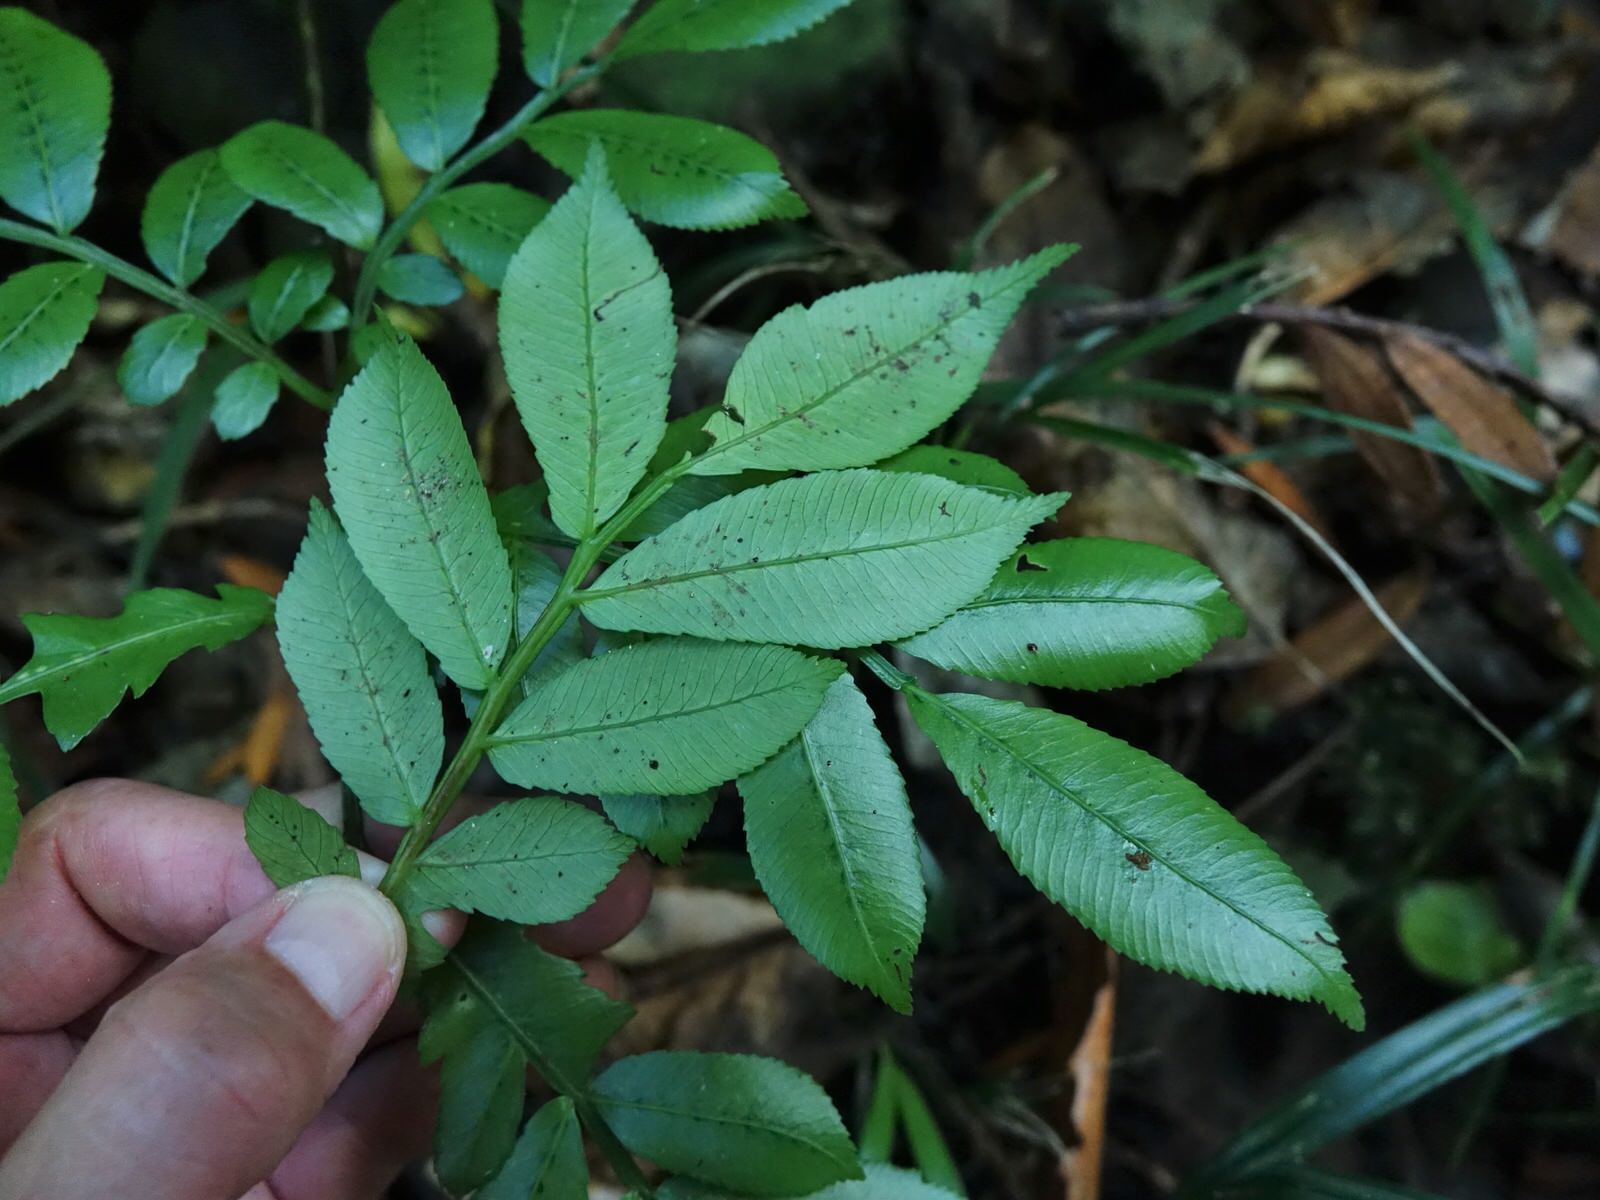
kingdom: Plantae
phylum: Tracheophyta
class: Polypodiopsida
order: Marattiales
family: Marattiaceae
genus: Ptisana
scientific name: Ptisana salicina
